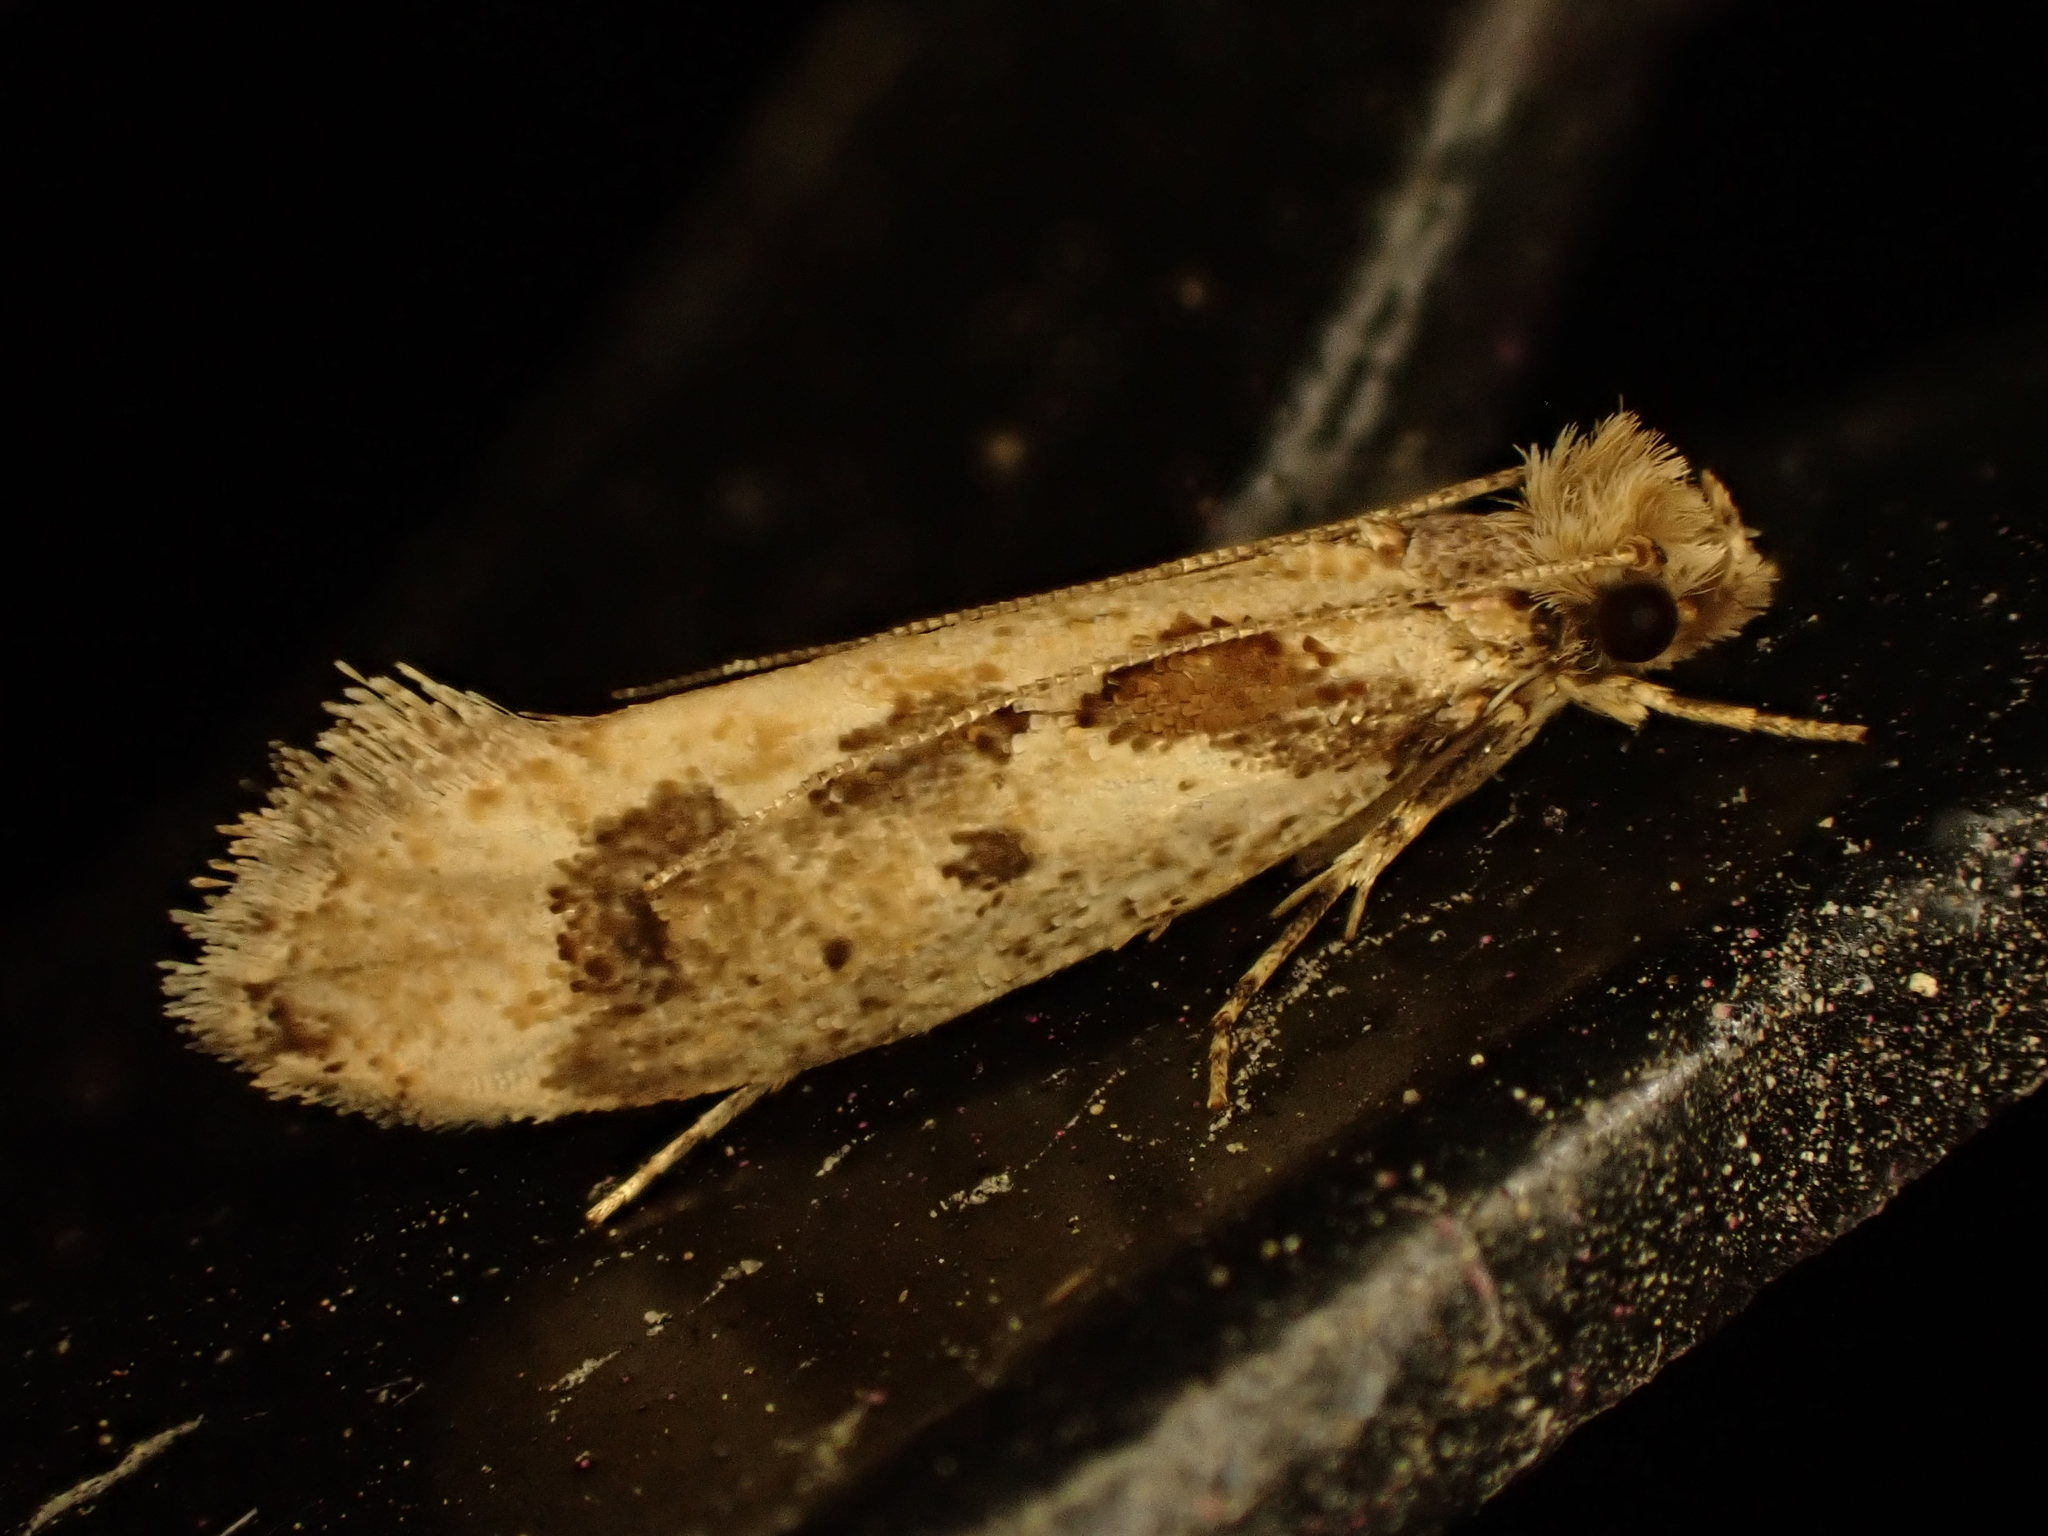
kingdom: Animalia
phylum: Arthropoda
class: Insecta
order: Lepidoptera
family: Tineidae
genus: Erechthias
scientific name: Erechthias capnitis
